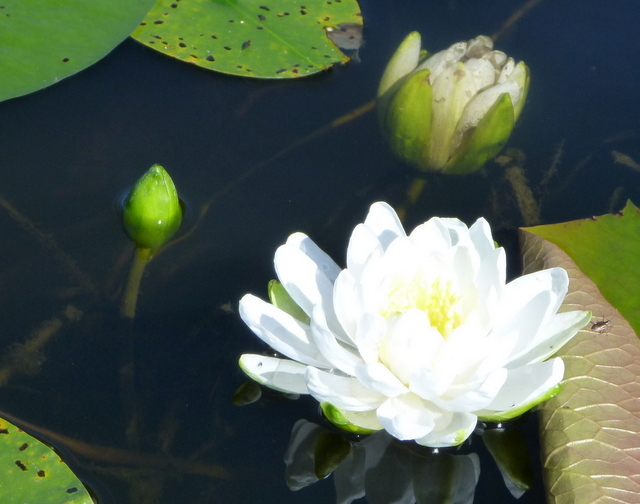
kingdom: Plantae
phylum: Tracheophyta
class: Magnoliopsida
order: Nymphaeales
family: Nymphaeaceae
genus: Nymphaea
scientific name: Nymphaea odorata
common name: Fragrant water-lily
